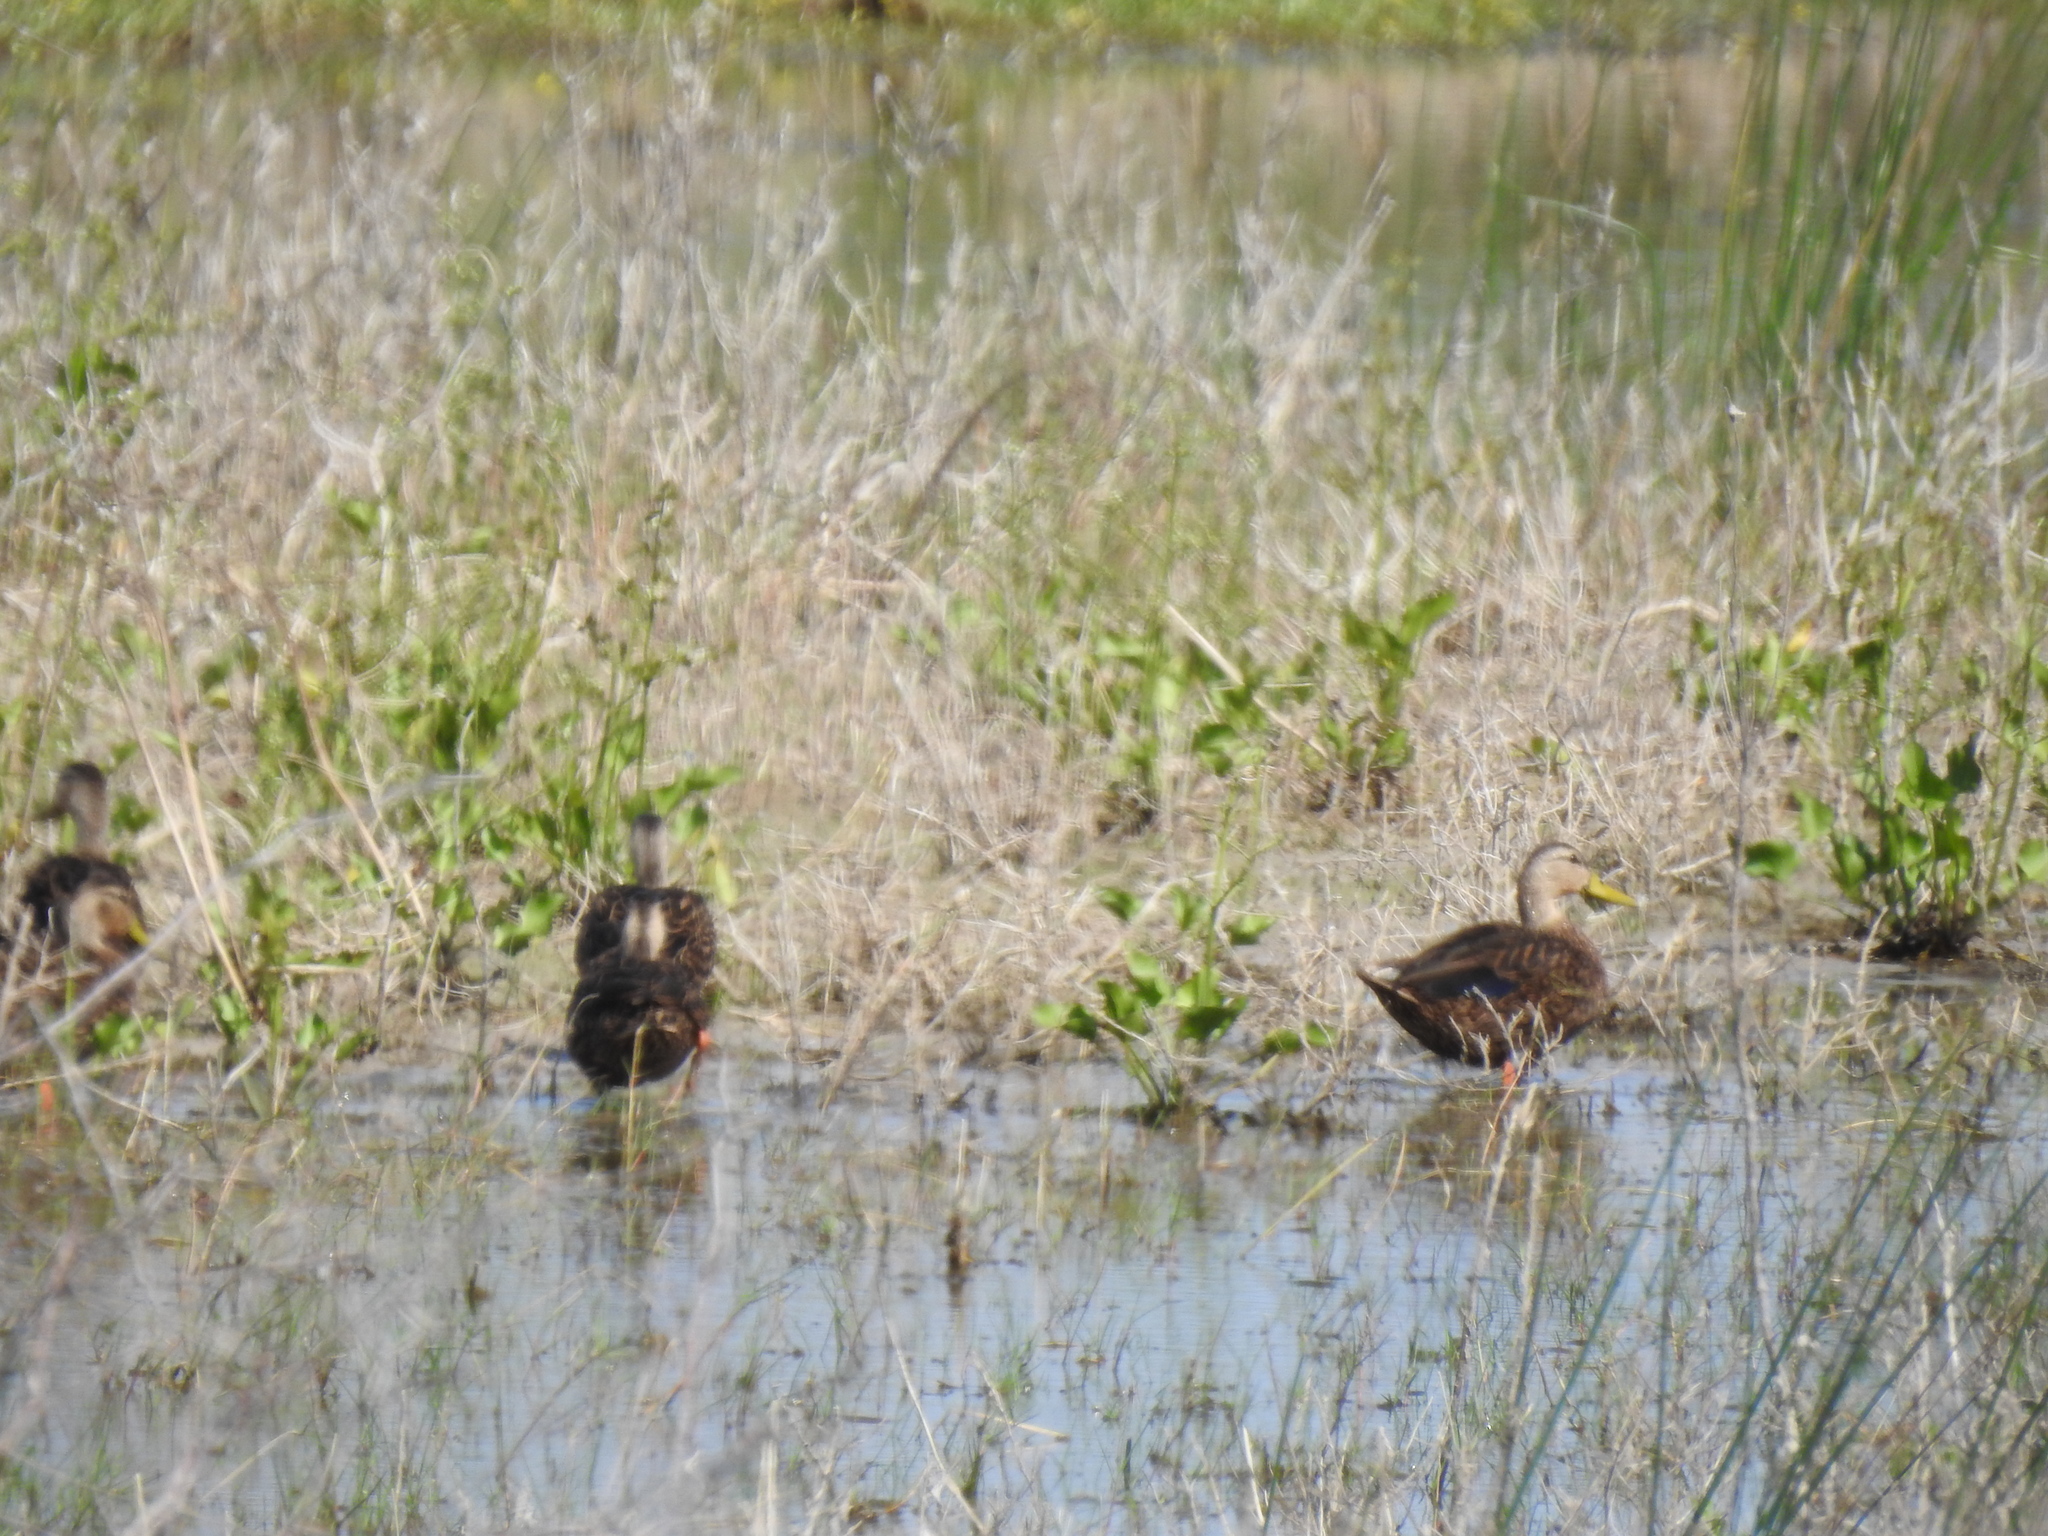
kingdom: Animalia
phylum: Chordata
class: Aves
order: Anseriformes
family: Anatidae
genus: Anas
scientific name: Anas fulvigula
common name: Mottled duck
